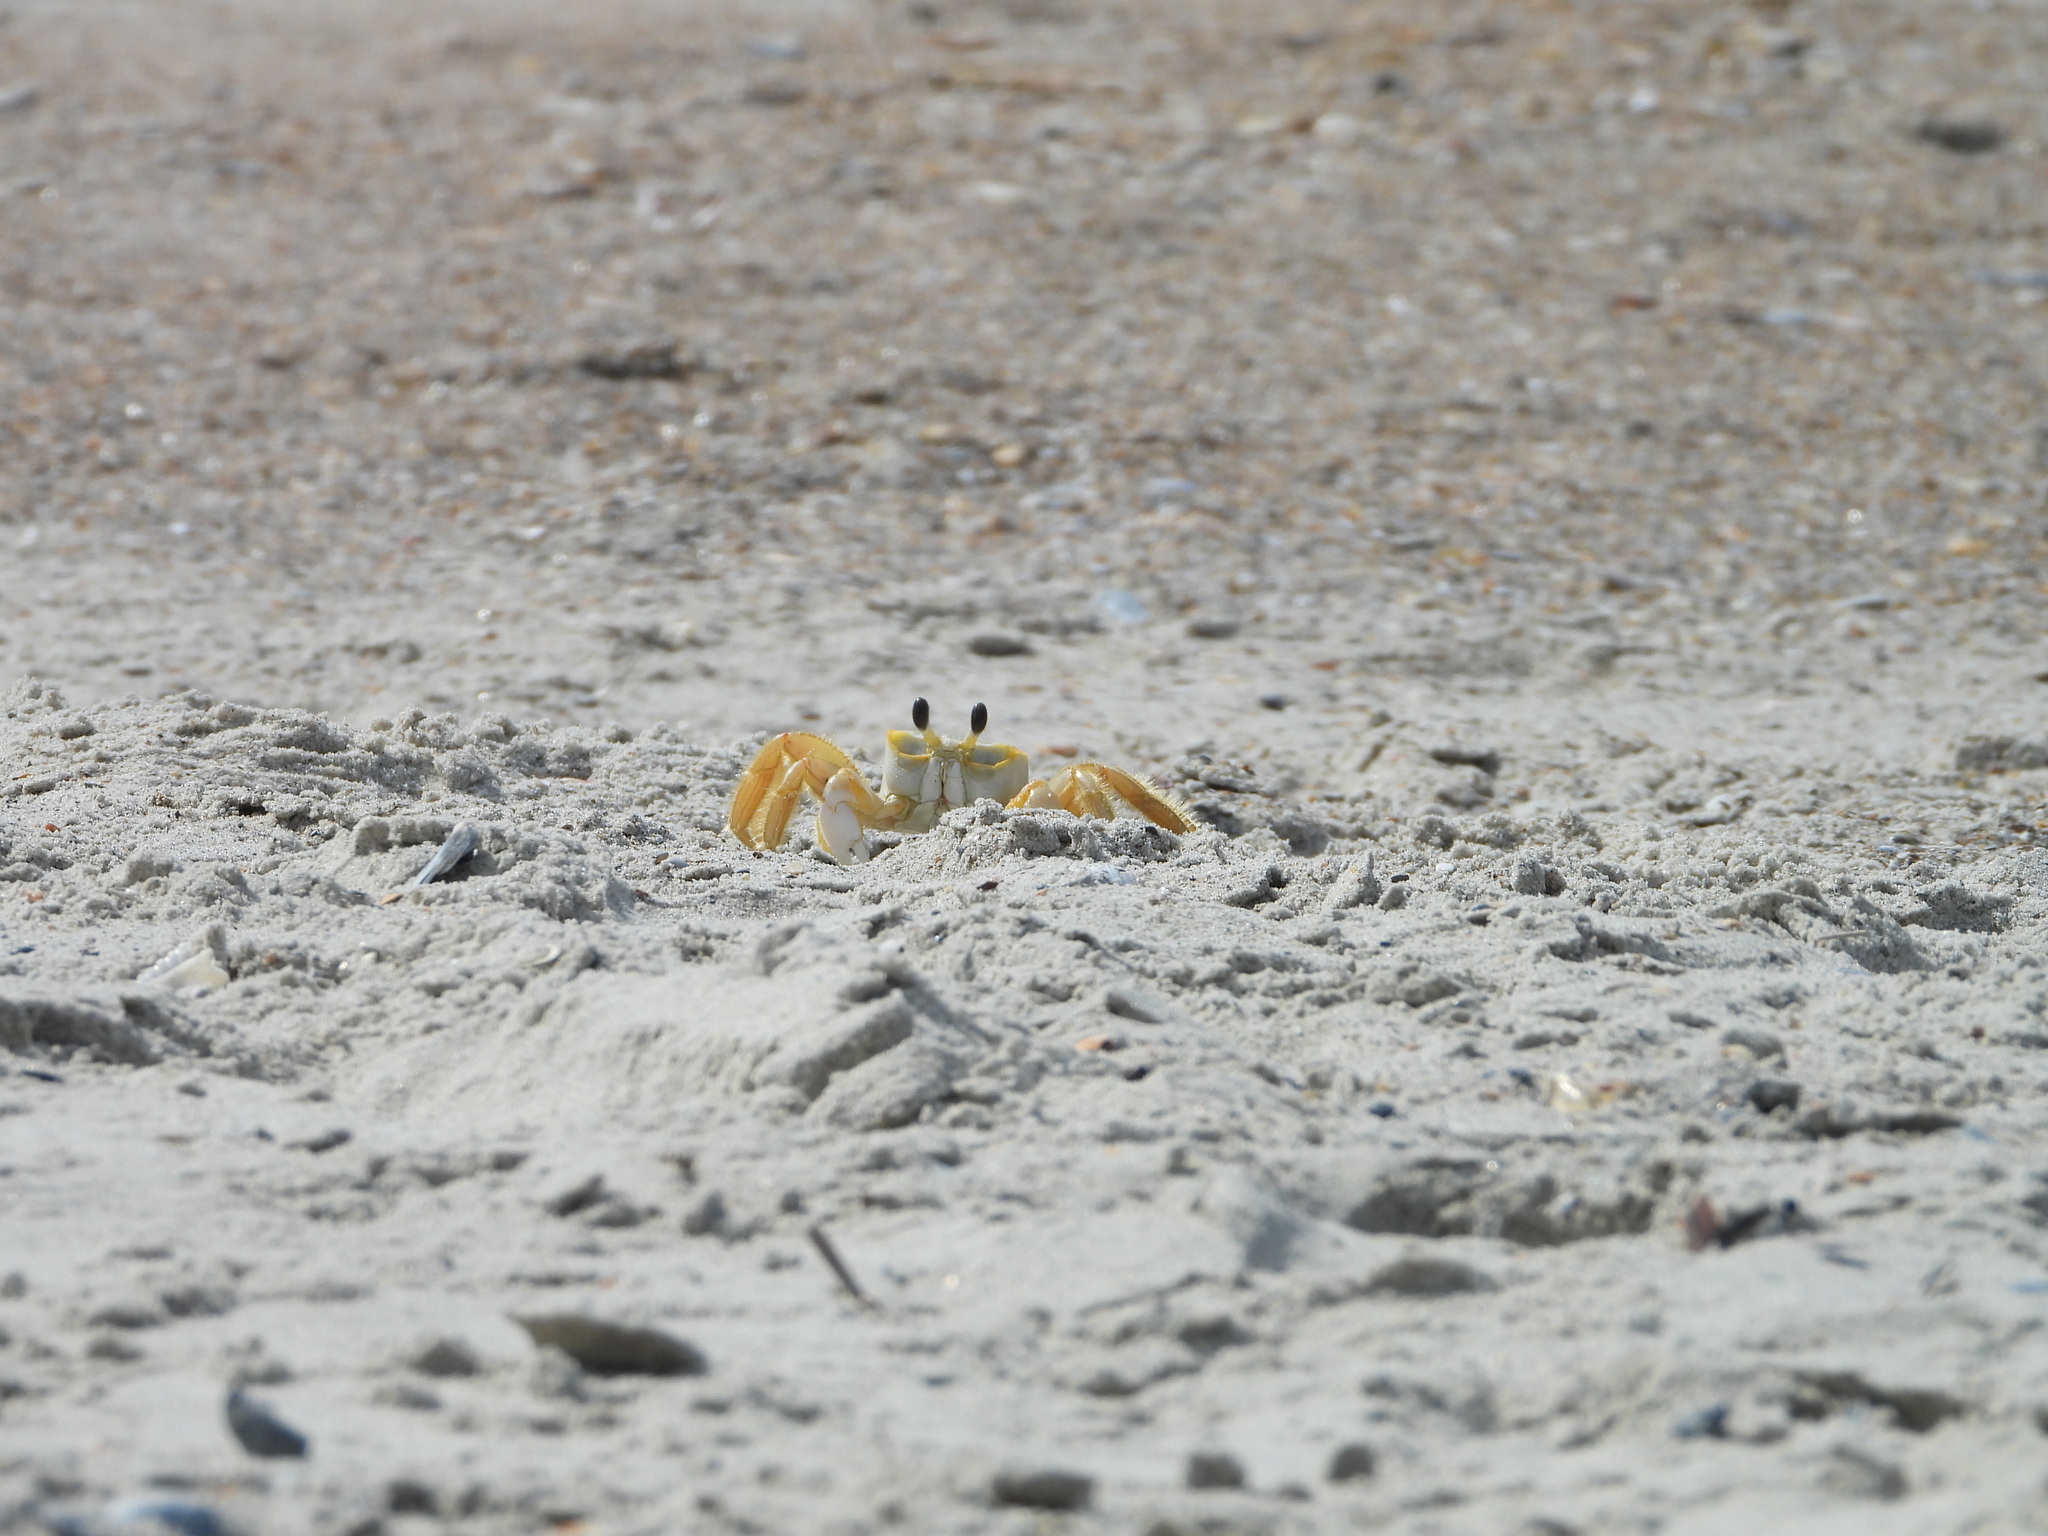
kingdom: Animalia
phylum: Arthropoda
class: Malacostraca
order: Decapoda
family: Ocypodidae
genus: Ocypode
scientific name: Ocypode quadrata
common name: Ghost crab
